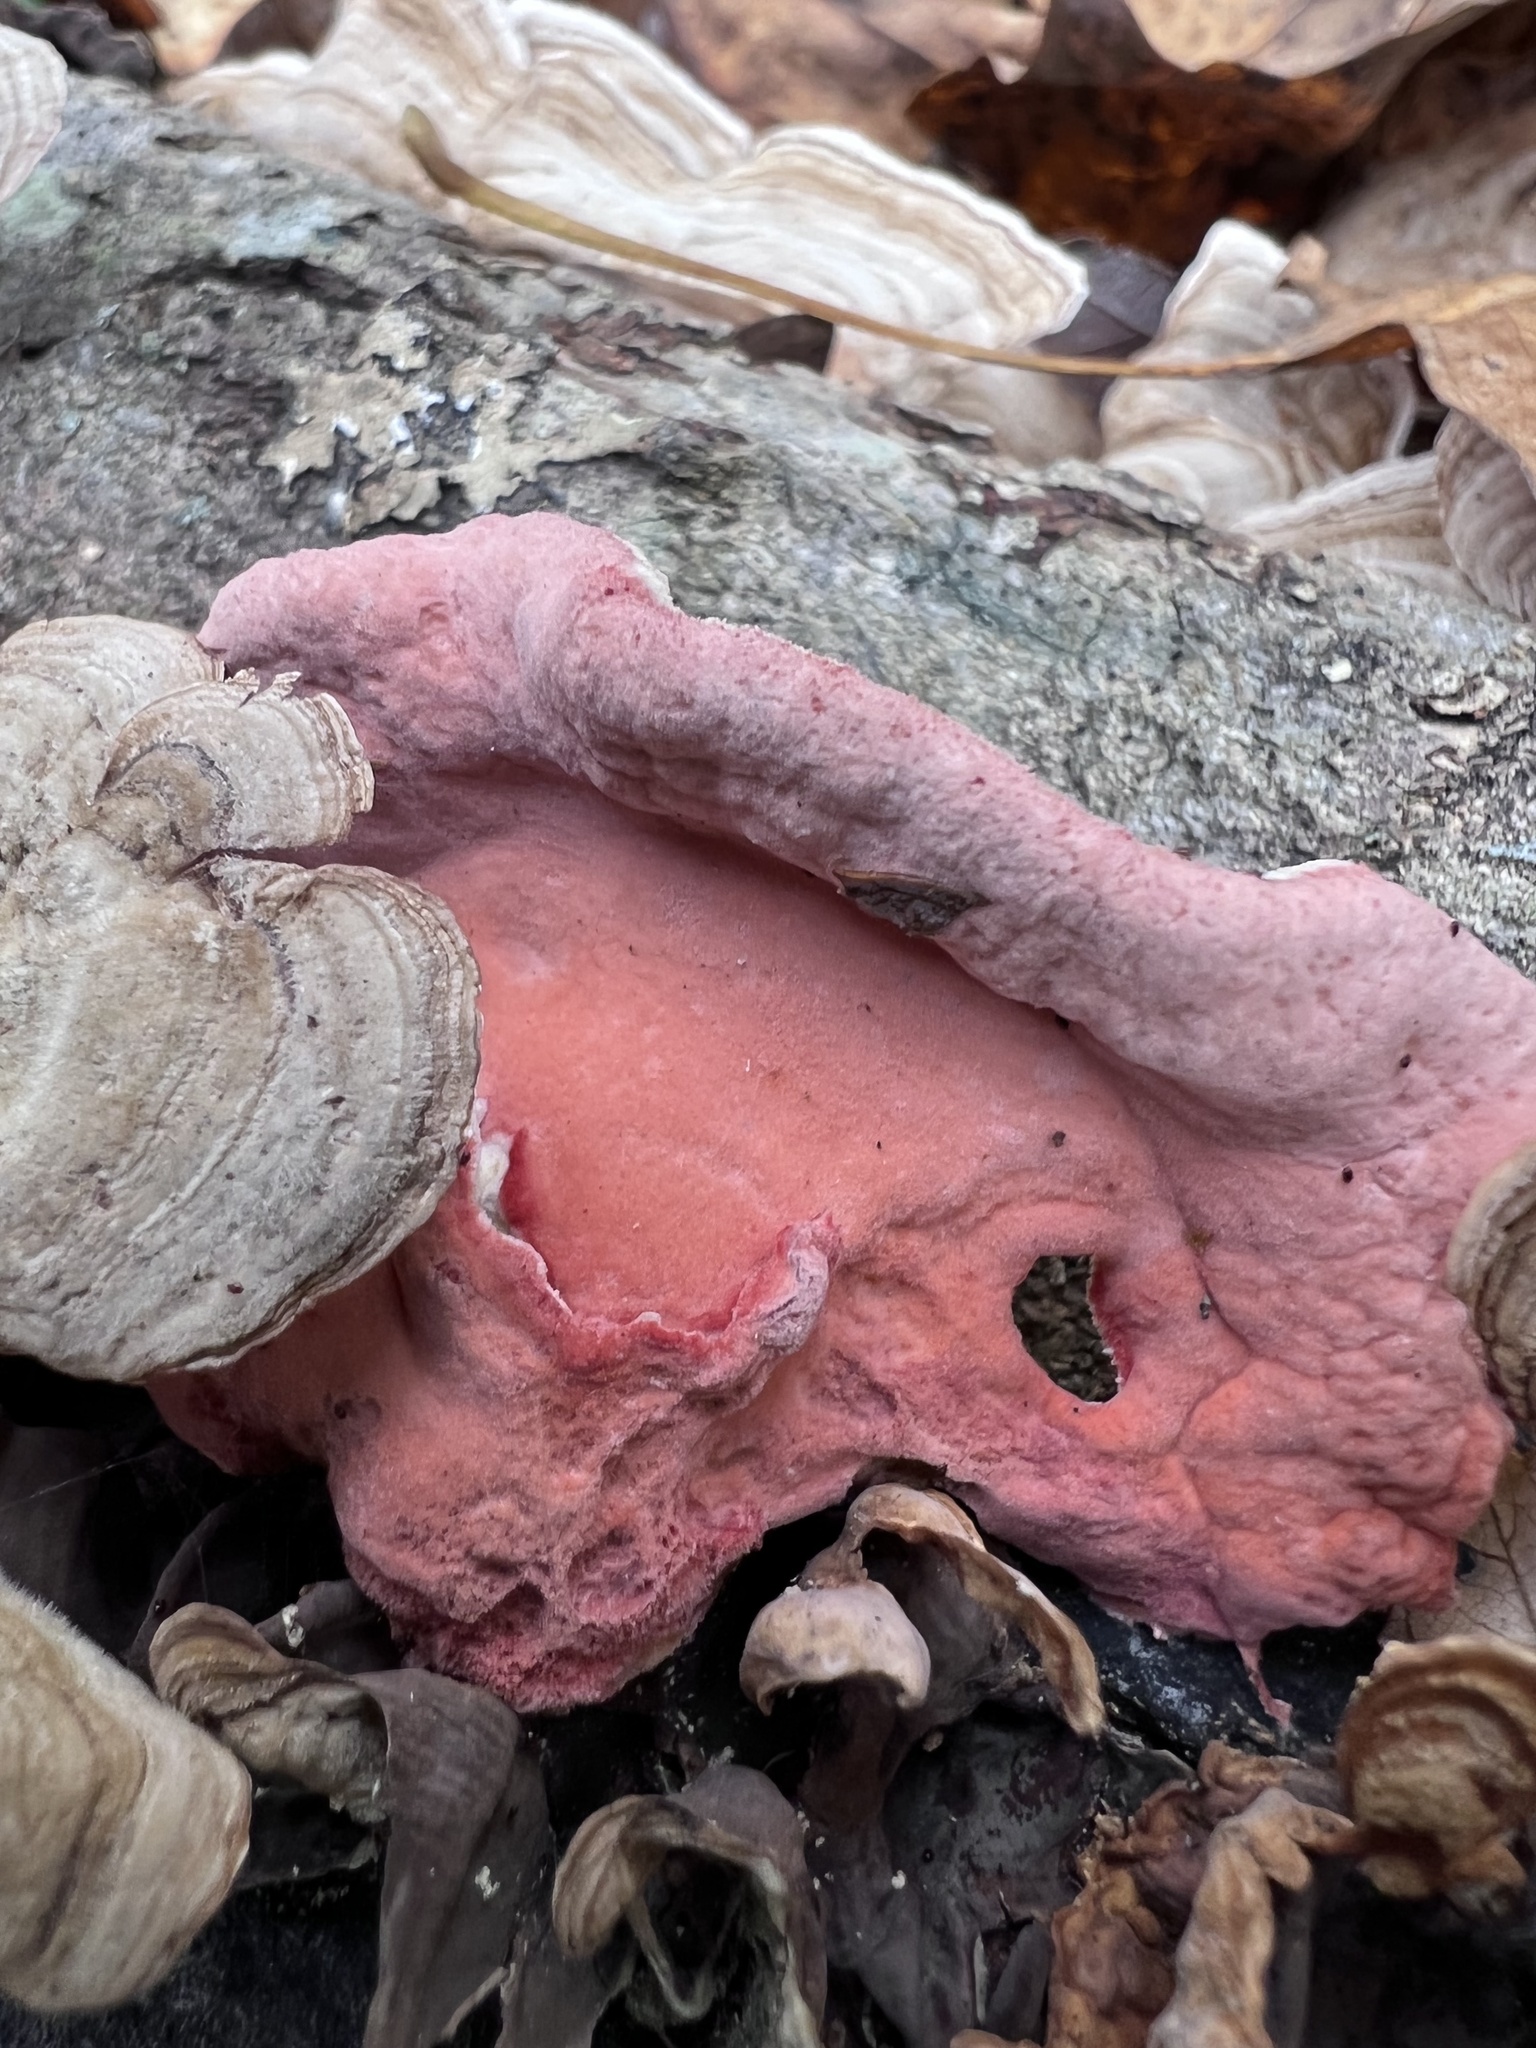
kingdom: Fungi
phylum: Basidiomycota
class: Agaricomycetes
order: Polyporales
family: Irpicaceae
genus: Byssomerulius
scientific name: Byssomerulius incarnatus
